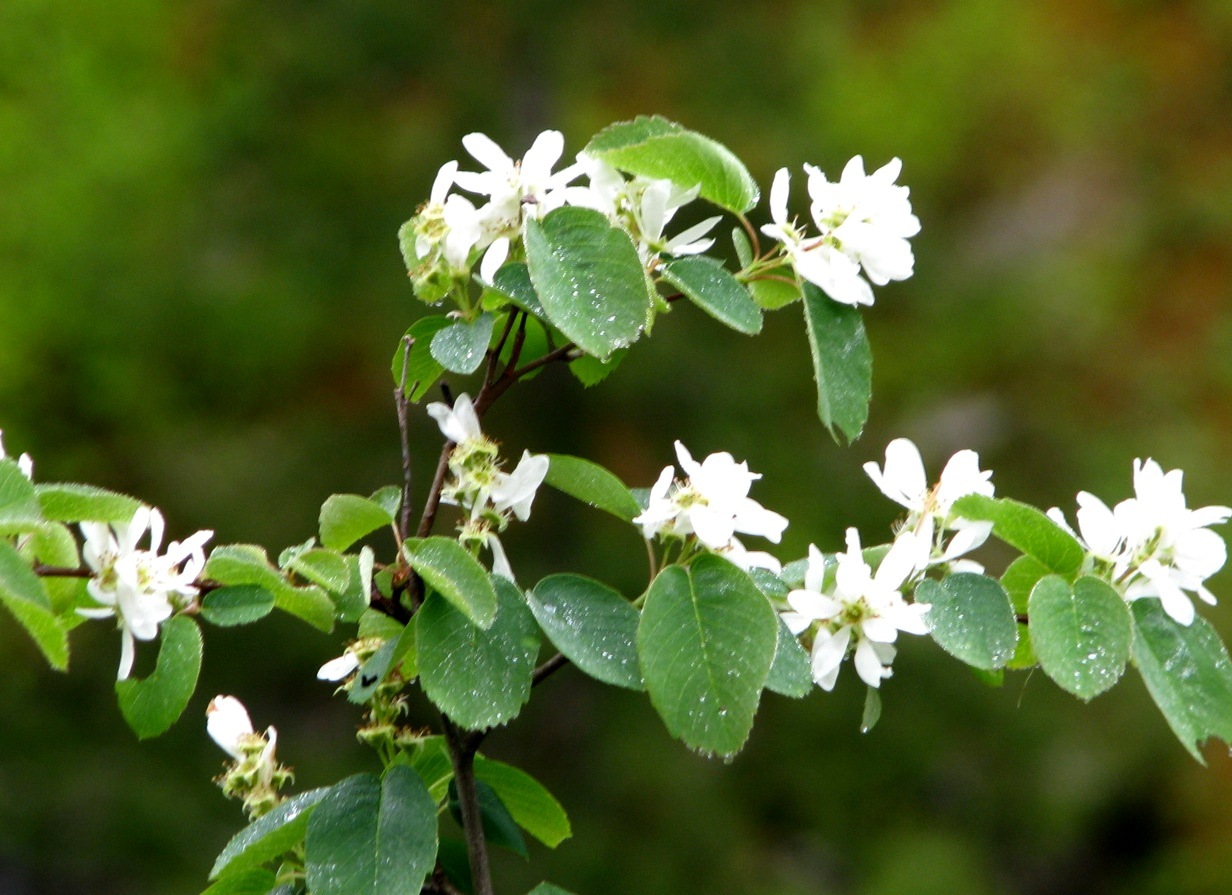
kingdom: Plantae
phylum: Tracheophyta
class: Magnoliopsida
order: Rosales
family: Rosaceae
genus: Amelanchier
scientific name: Amelanchier alnifolia
